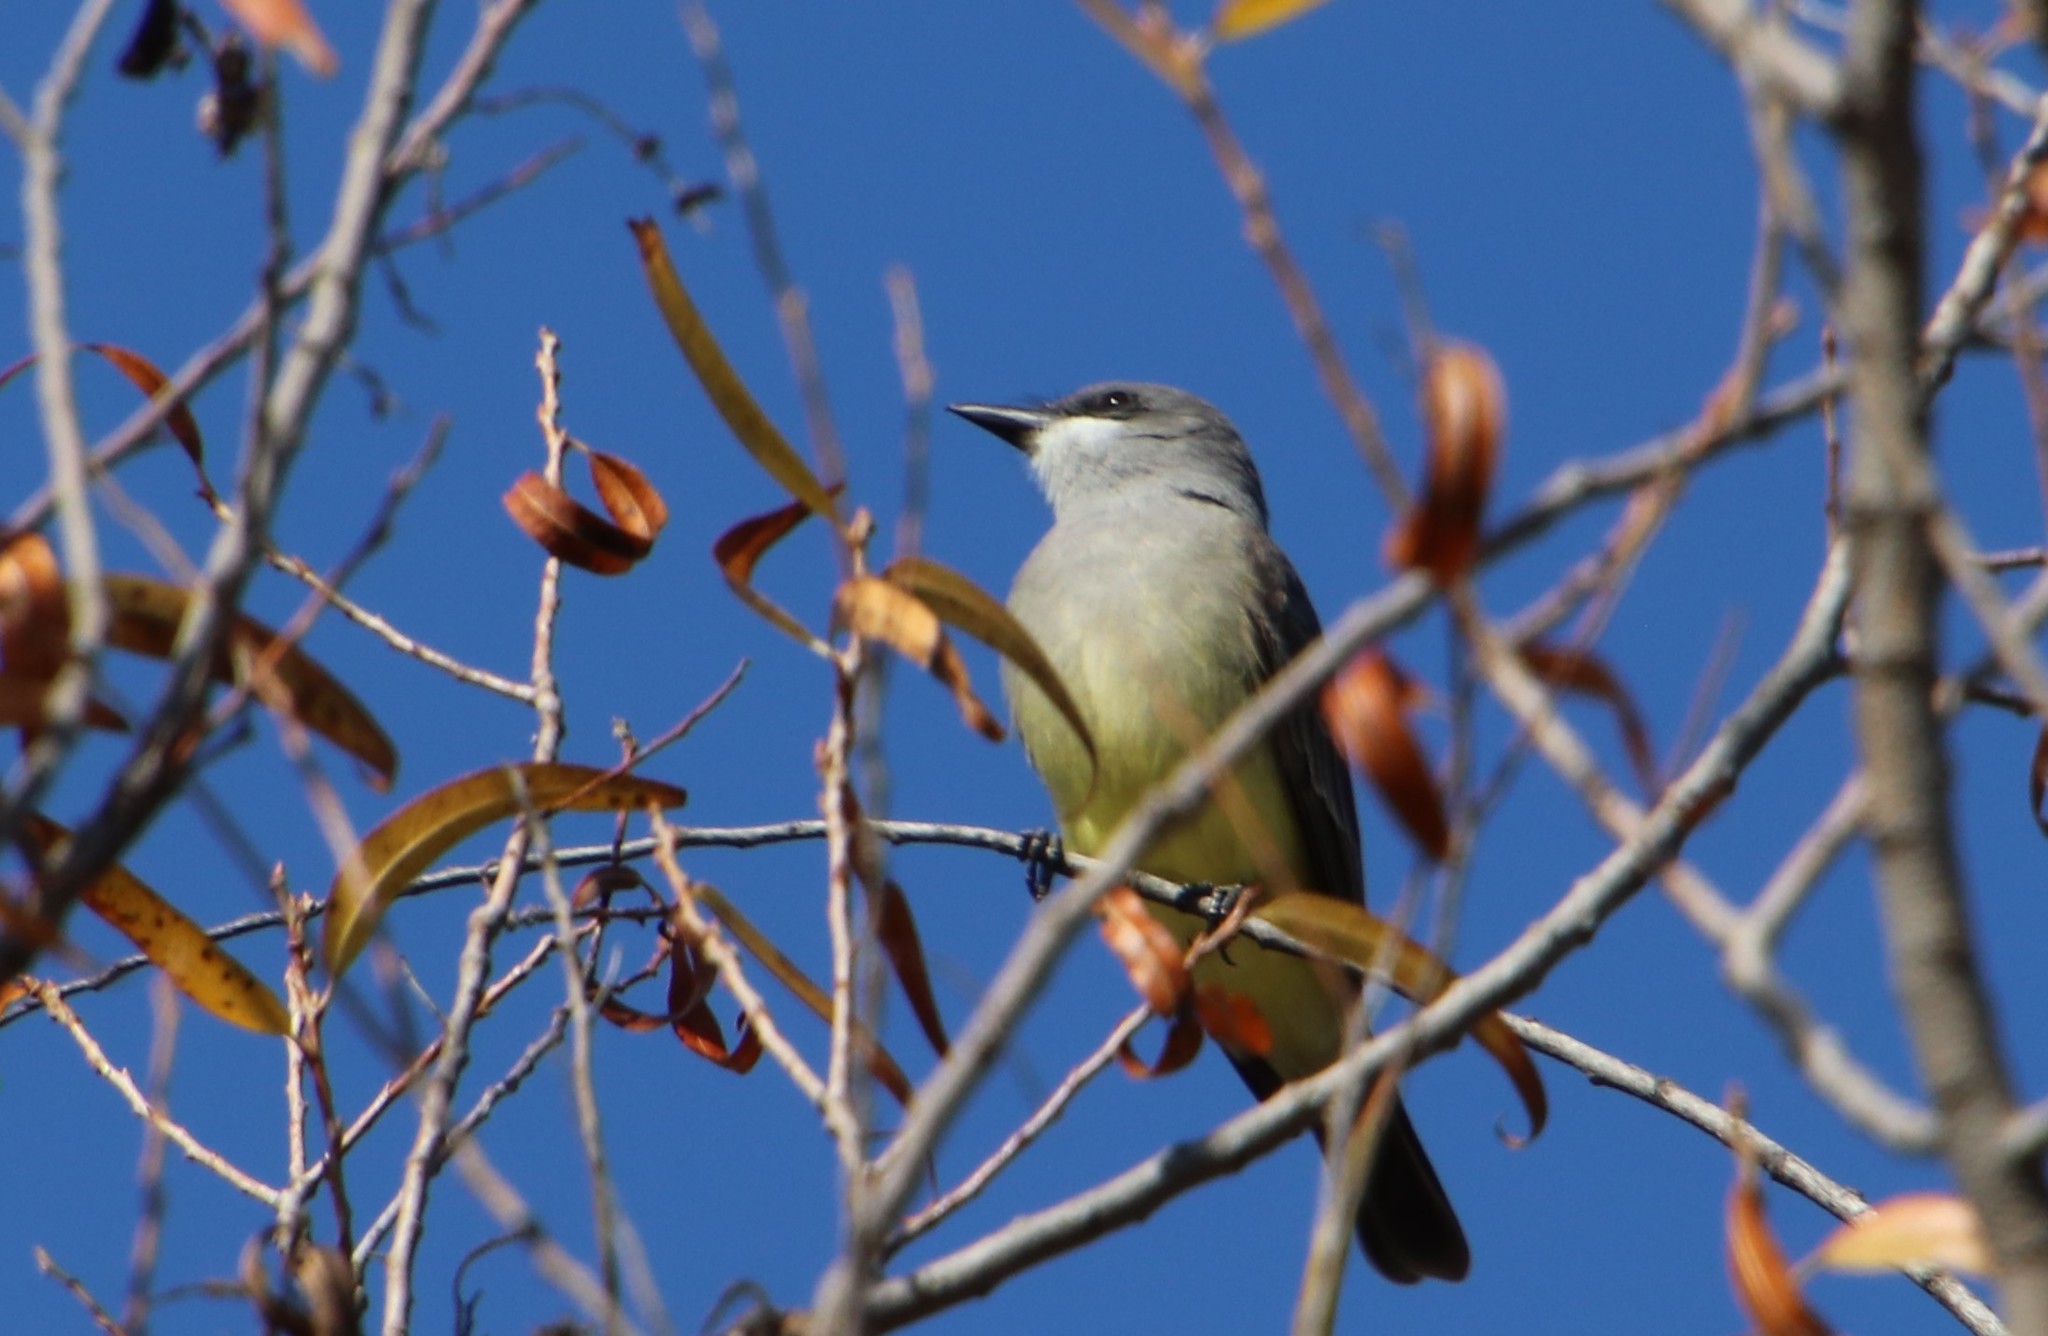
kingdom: Animalia
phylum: Chordata
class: Aves
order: Passeriformes
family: Tyrannidae
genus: Tyrannus
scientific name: Tyrannus vociferans
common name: Cassin's kingbird
